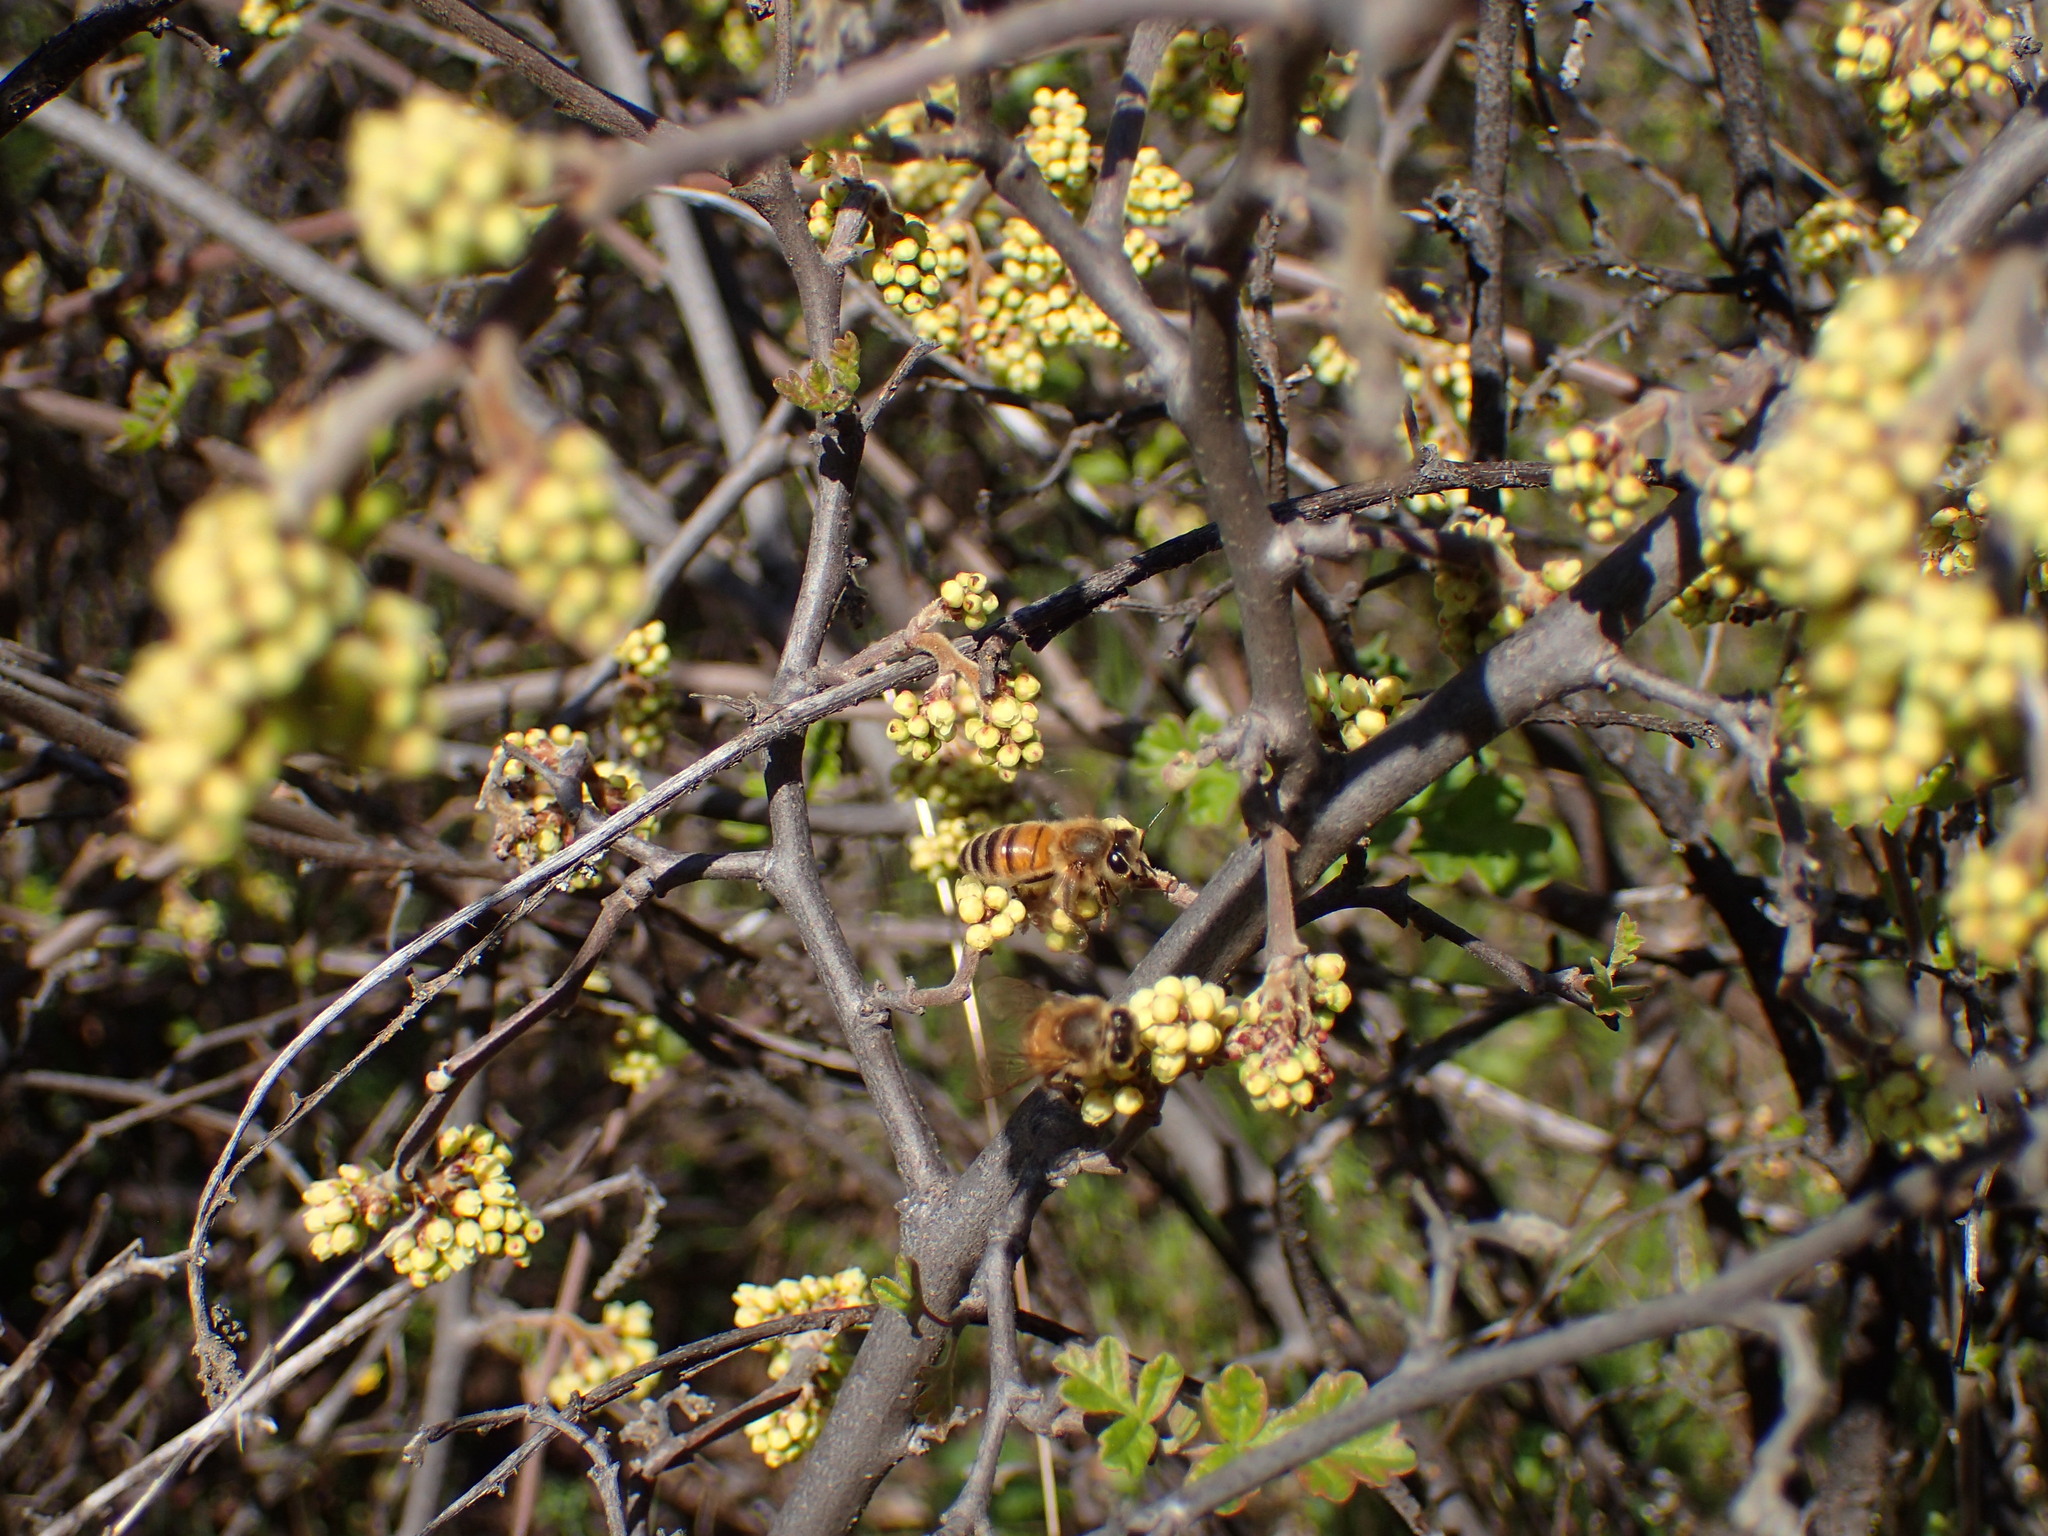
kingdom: Animalia
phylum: Arthropoda
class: Insecta
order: Hymenoptera
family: Apidae
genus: Apis
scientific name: Apis mellifera
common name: Honey bee
